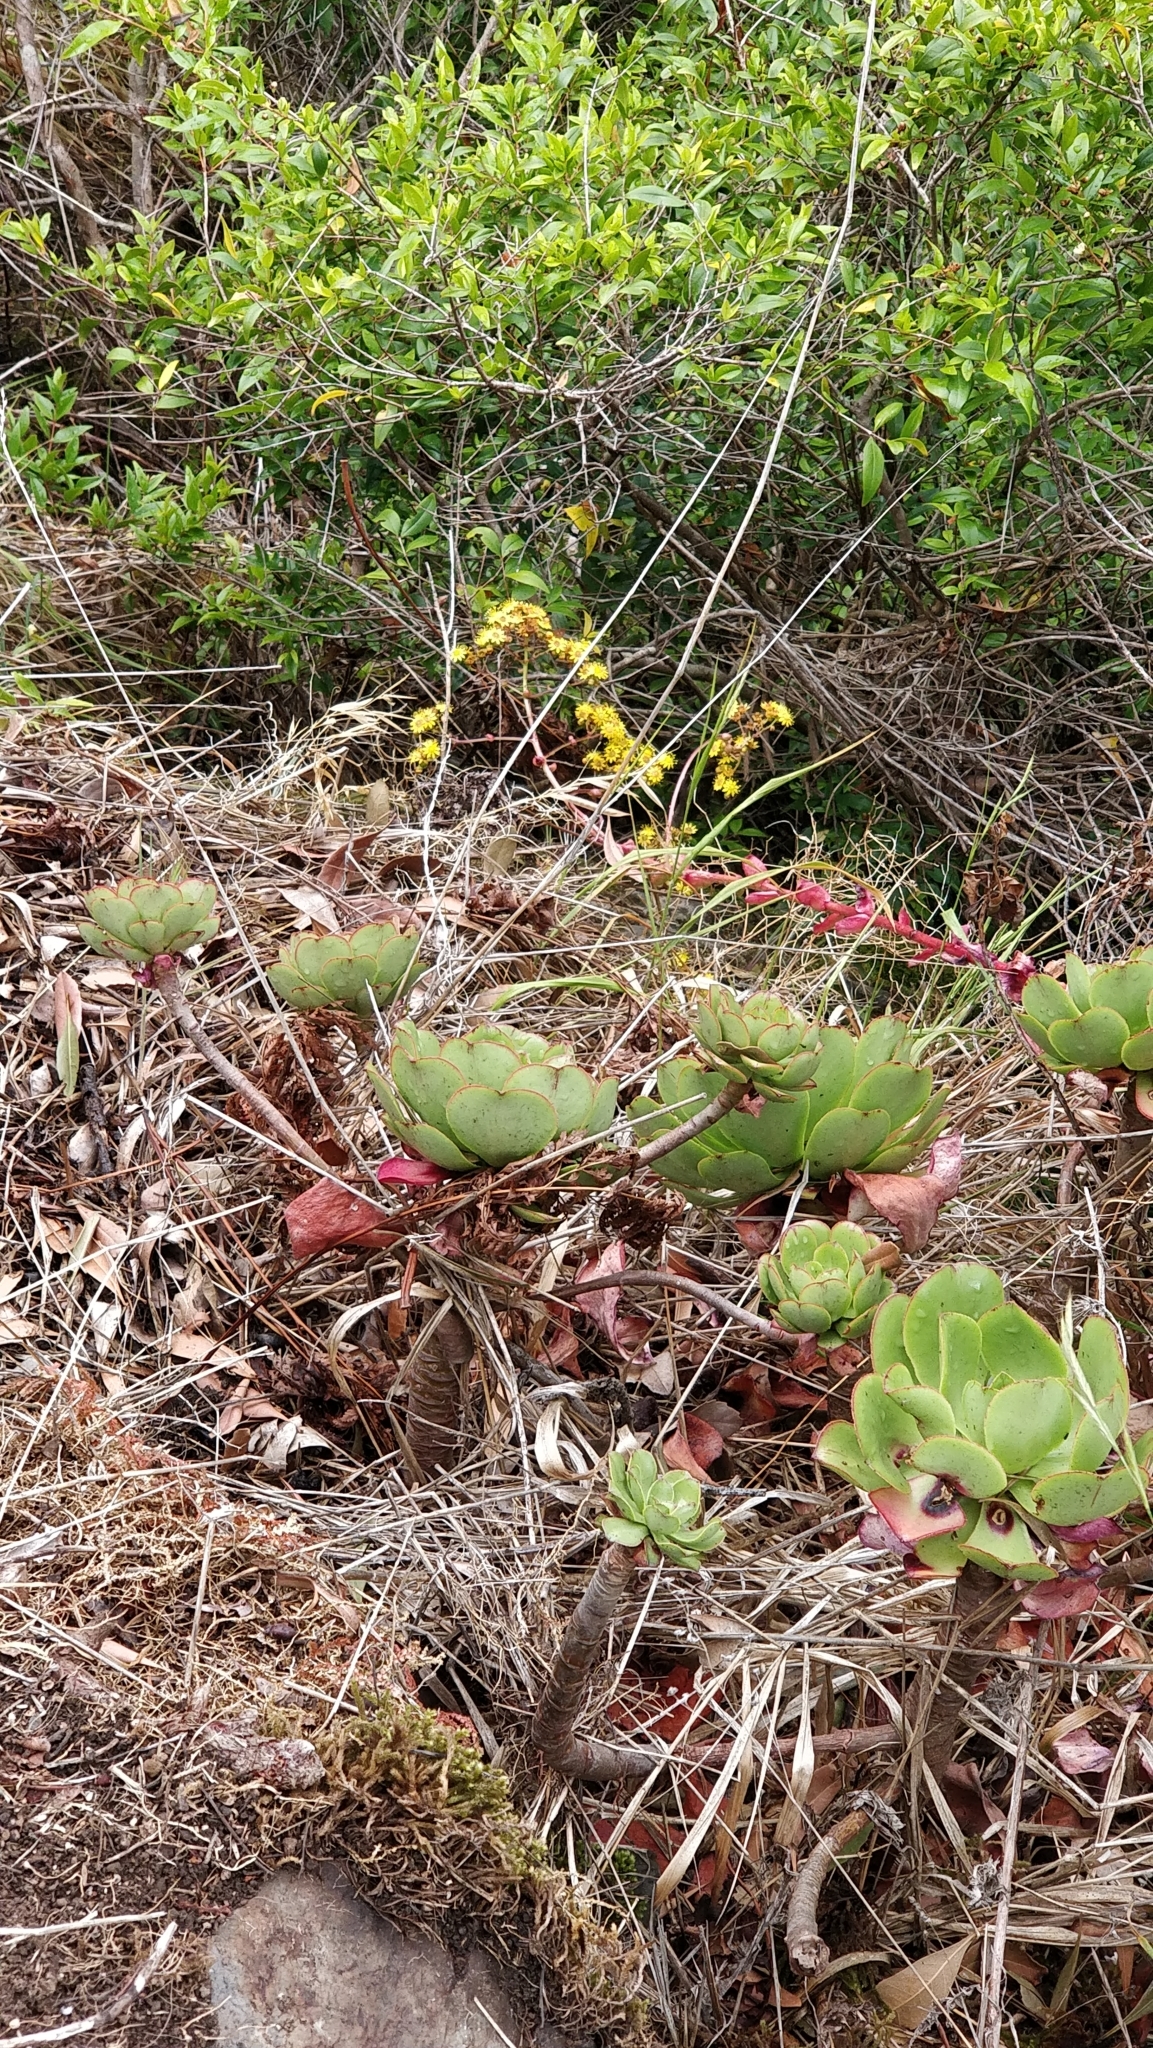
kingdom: Plantae
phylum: Tracheophyta
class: Magnoliopsida
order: Saxifragales
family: Crassulaceae
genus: Aeonium
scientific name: Aeonium glutinosum
